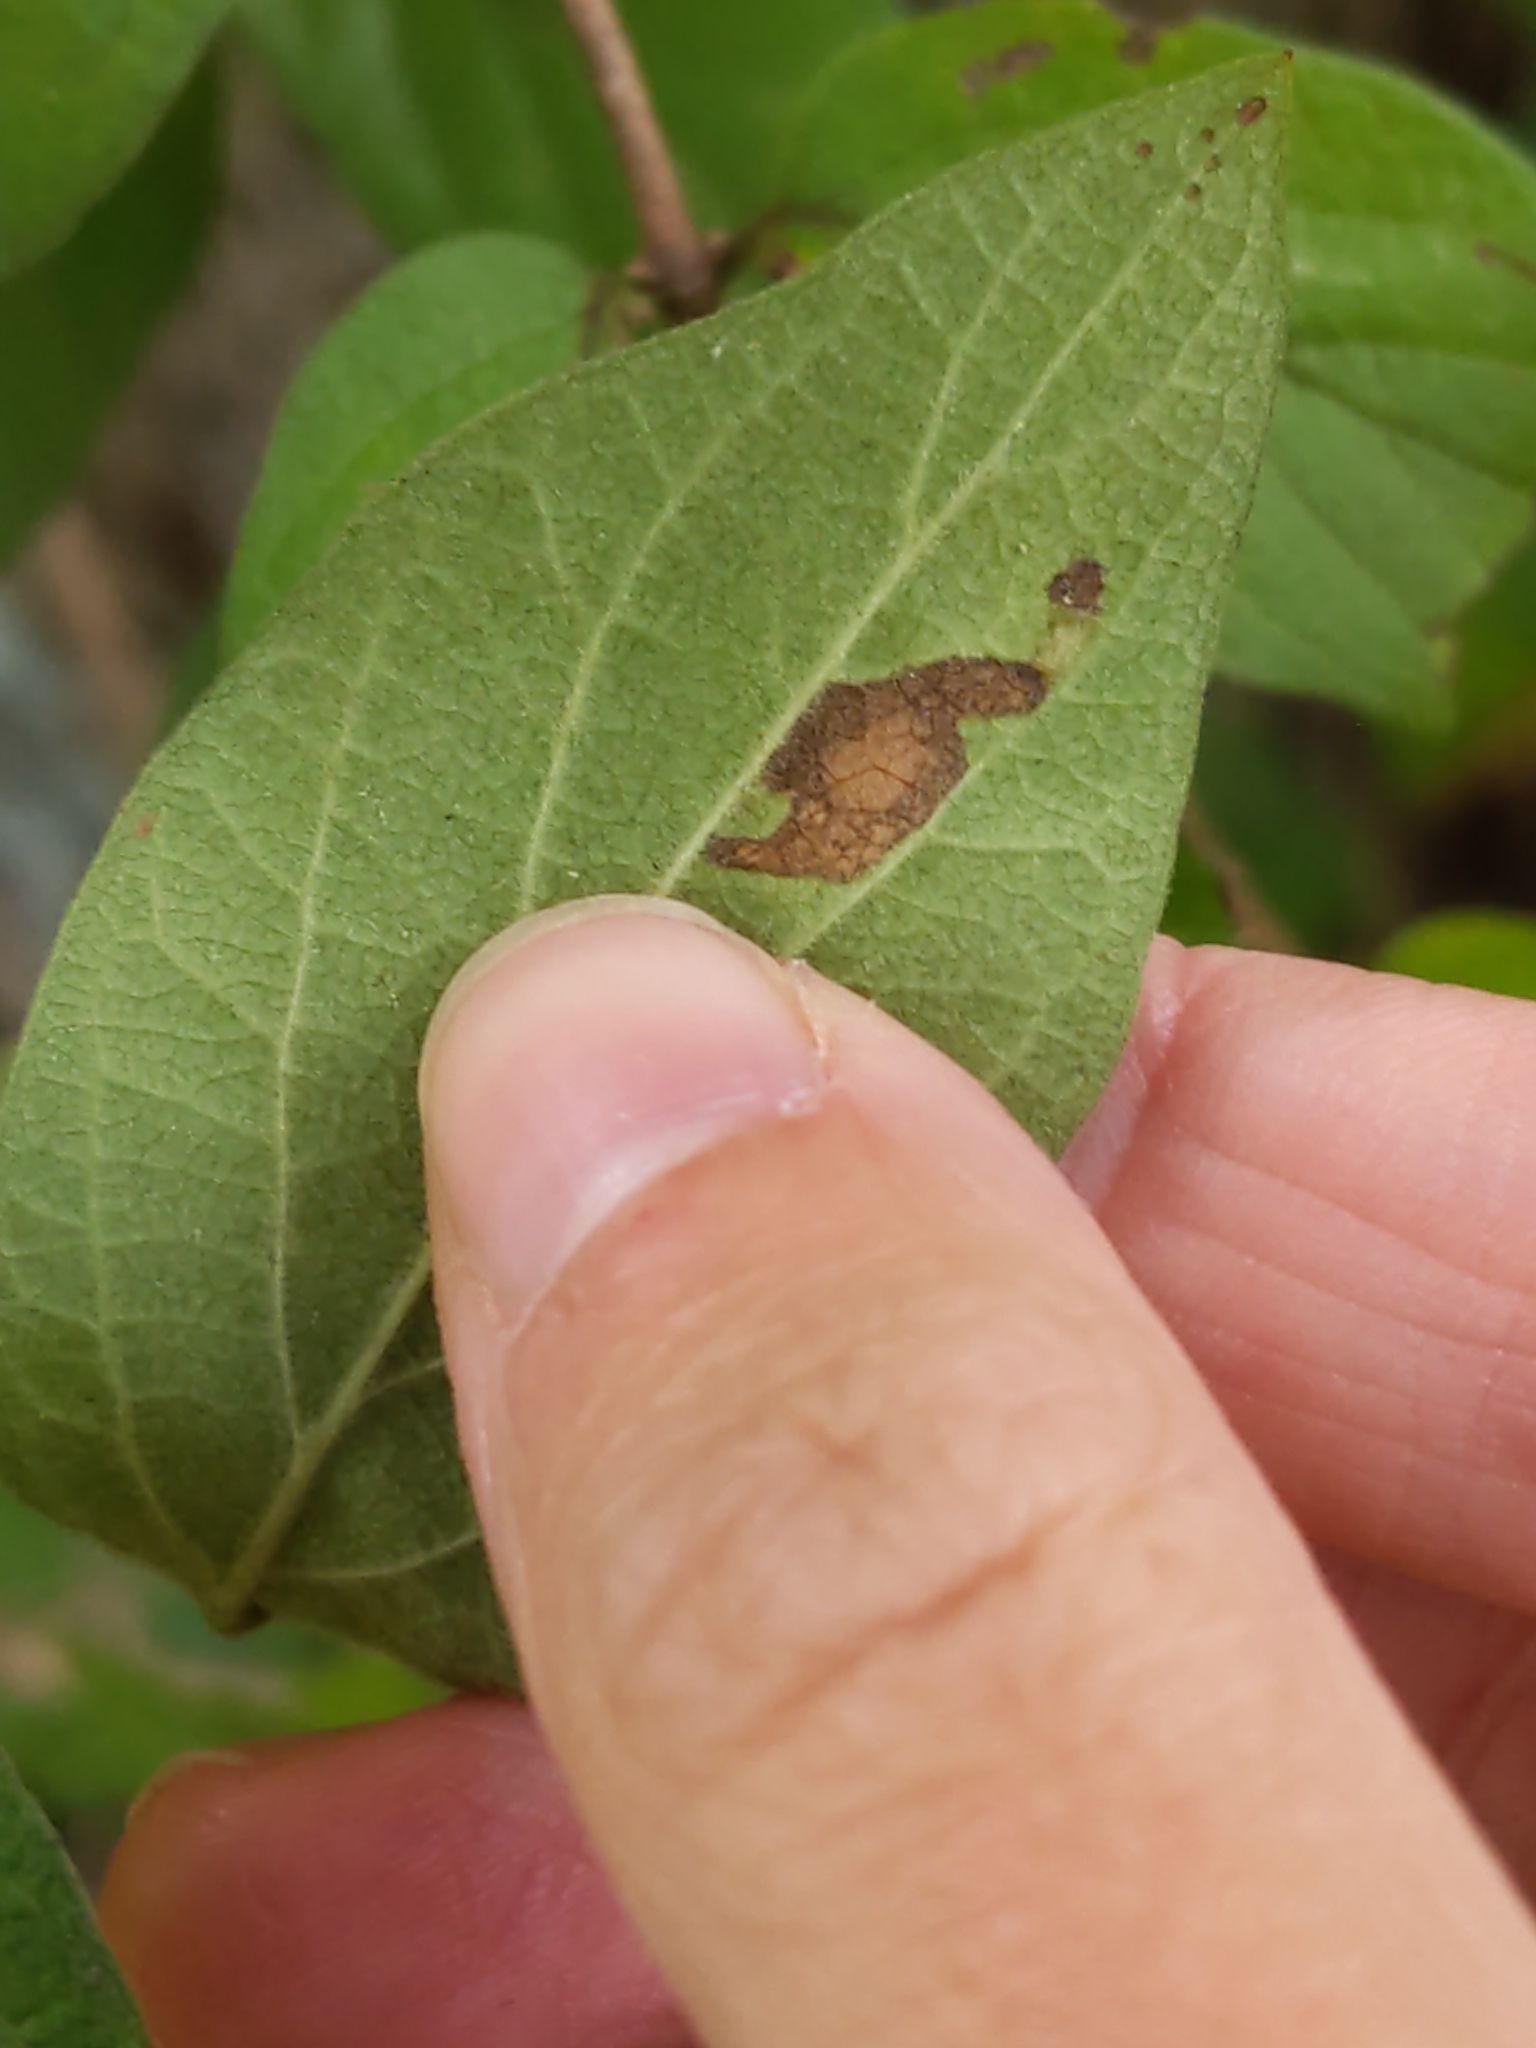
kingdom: Animalia
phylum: Arthropoda
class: Insecta
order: Diptera
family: Agromyzidae
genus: Aulagromyza
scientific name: Aulagromyza
